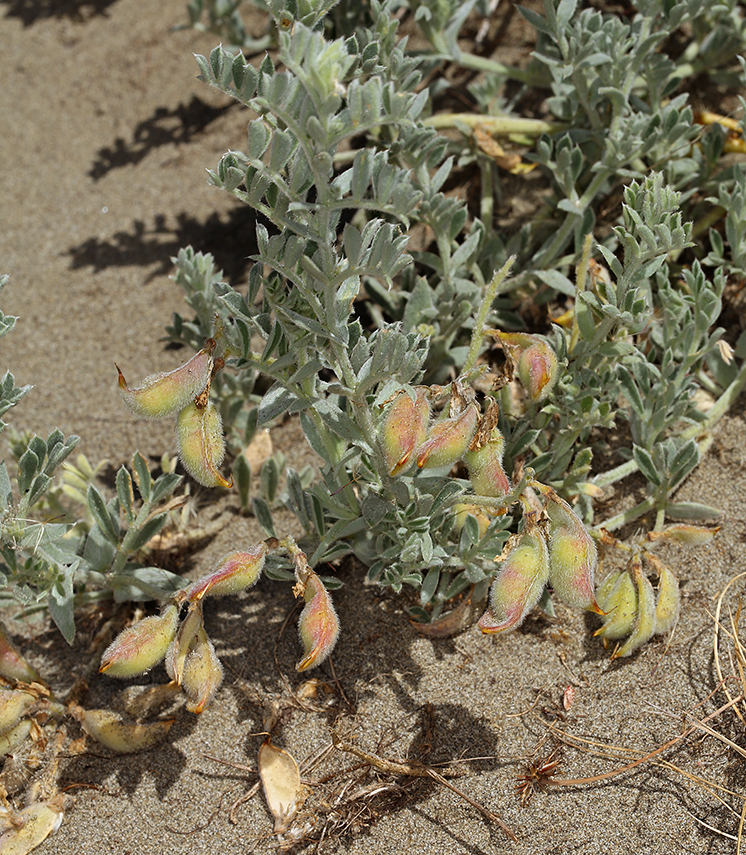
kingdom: Plantae
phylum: Tracheophyta
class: Magnoliopsida
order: Fabales
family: Fabaceae
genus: Lathyrus
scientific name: Lathyrus littoralis
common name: Dune sweet pea
